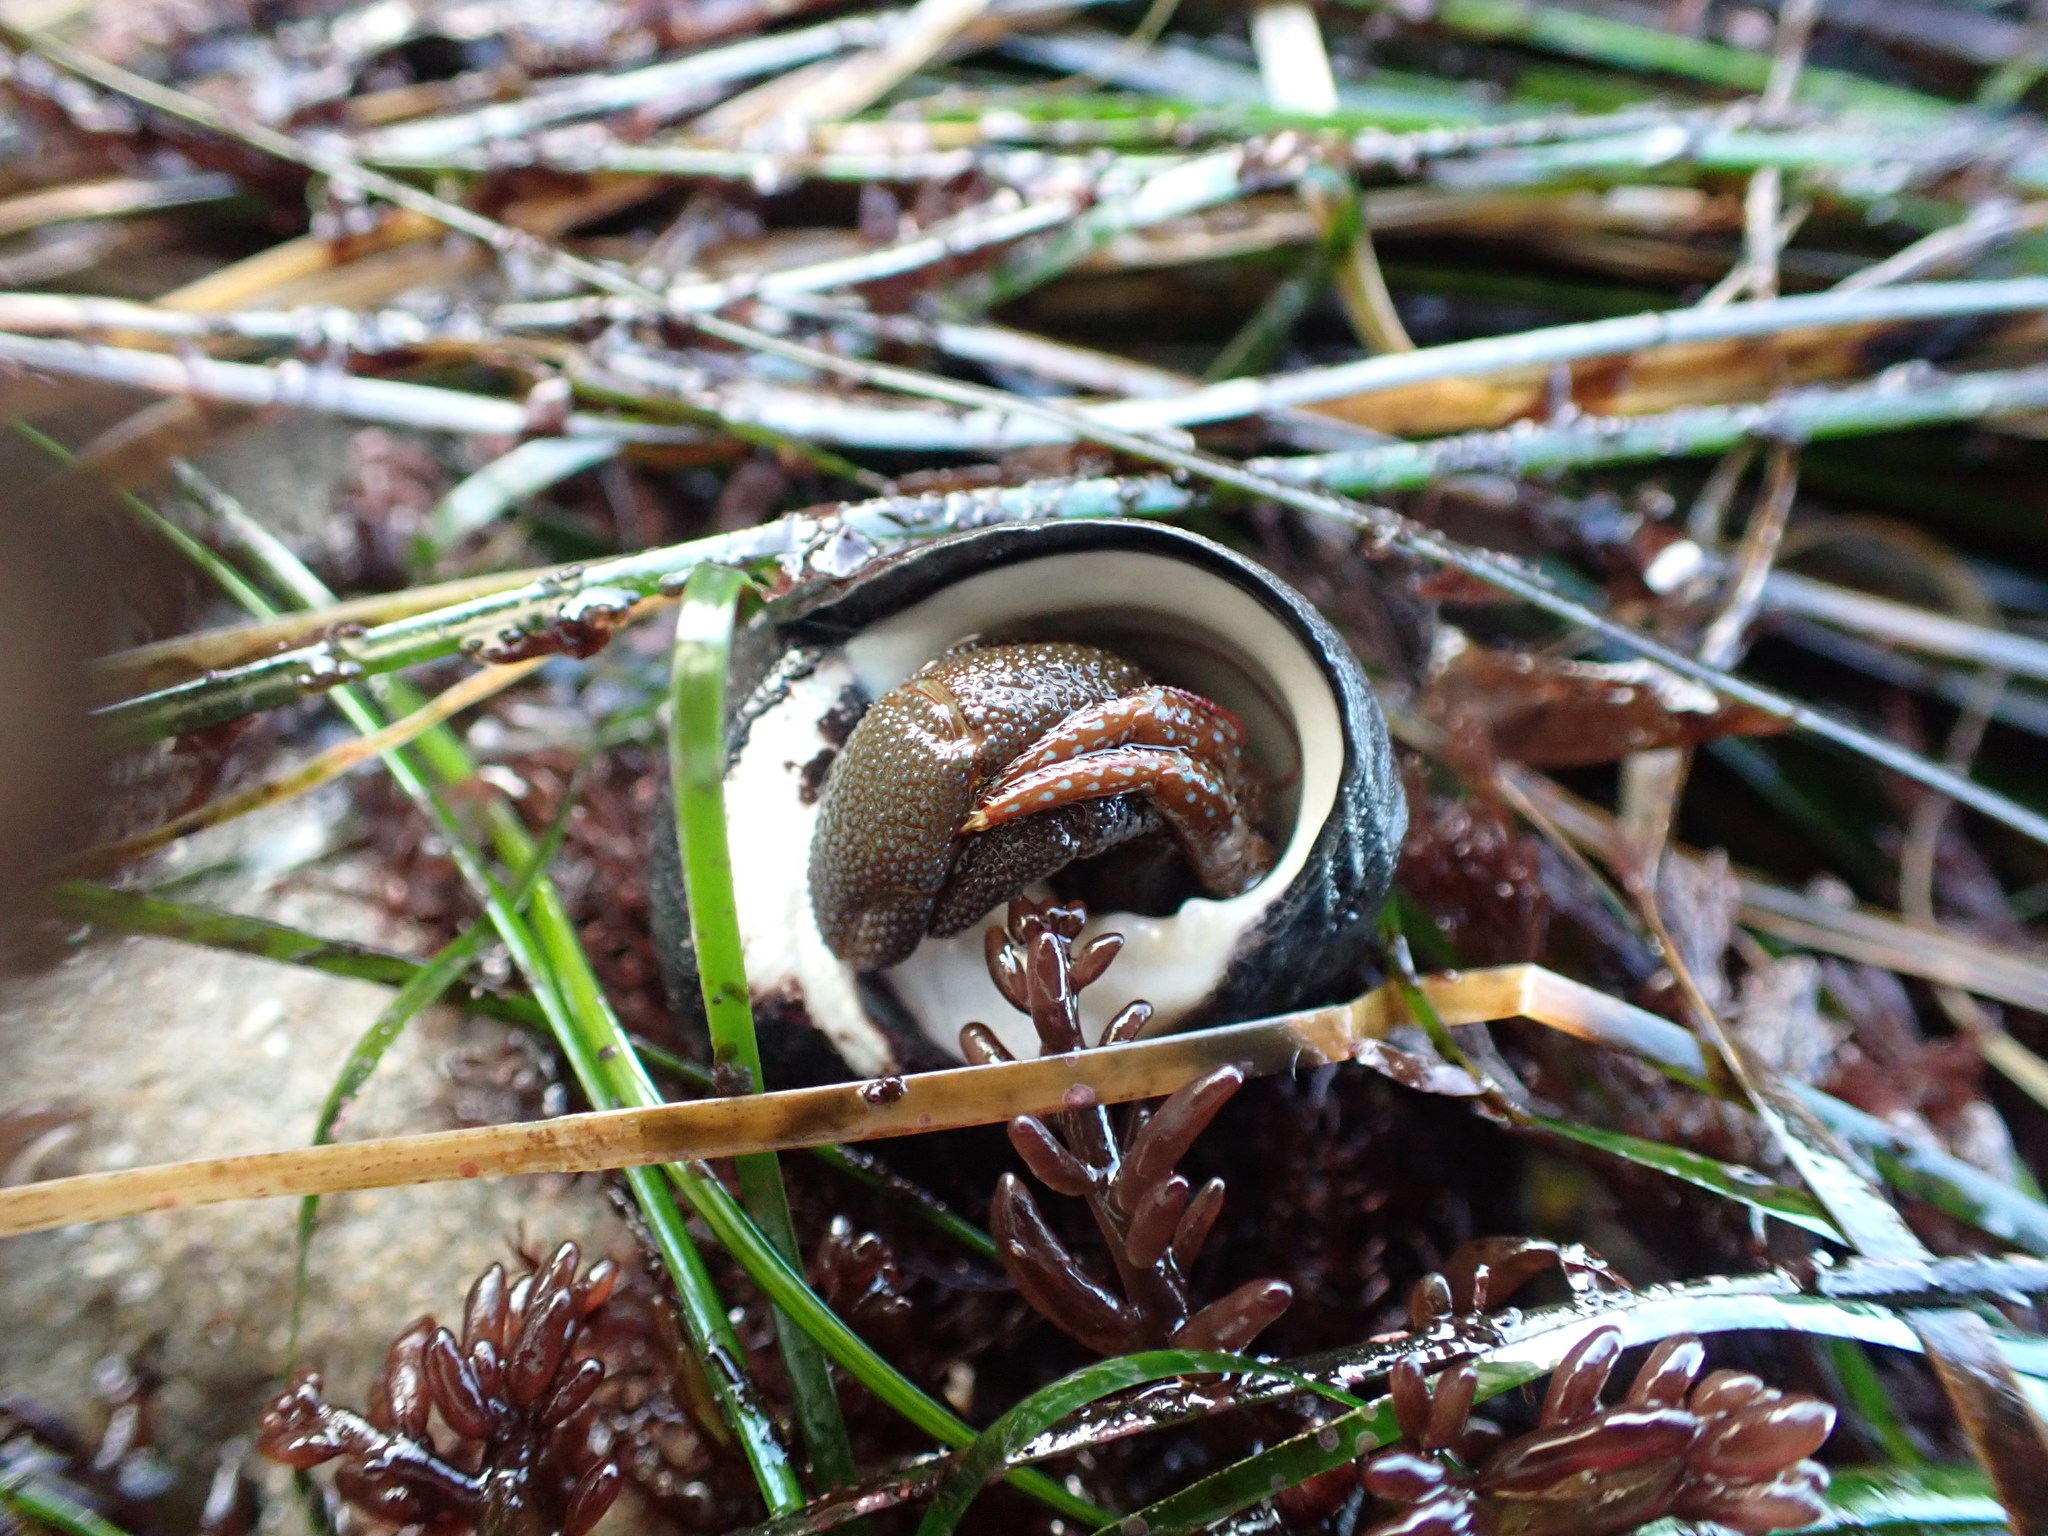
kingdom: Animalia
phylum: Arthropoda
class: Malacostraca
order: Decapoda
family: Paguridae
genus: Pagurus
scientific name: Pagurus granosimanus
